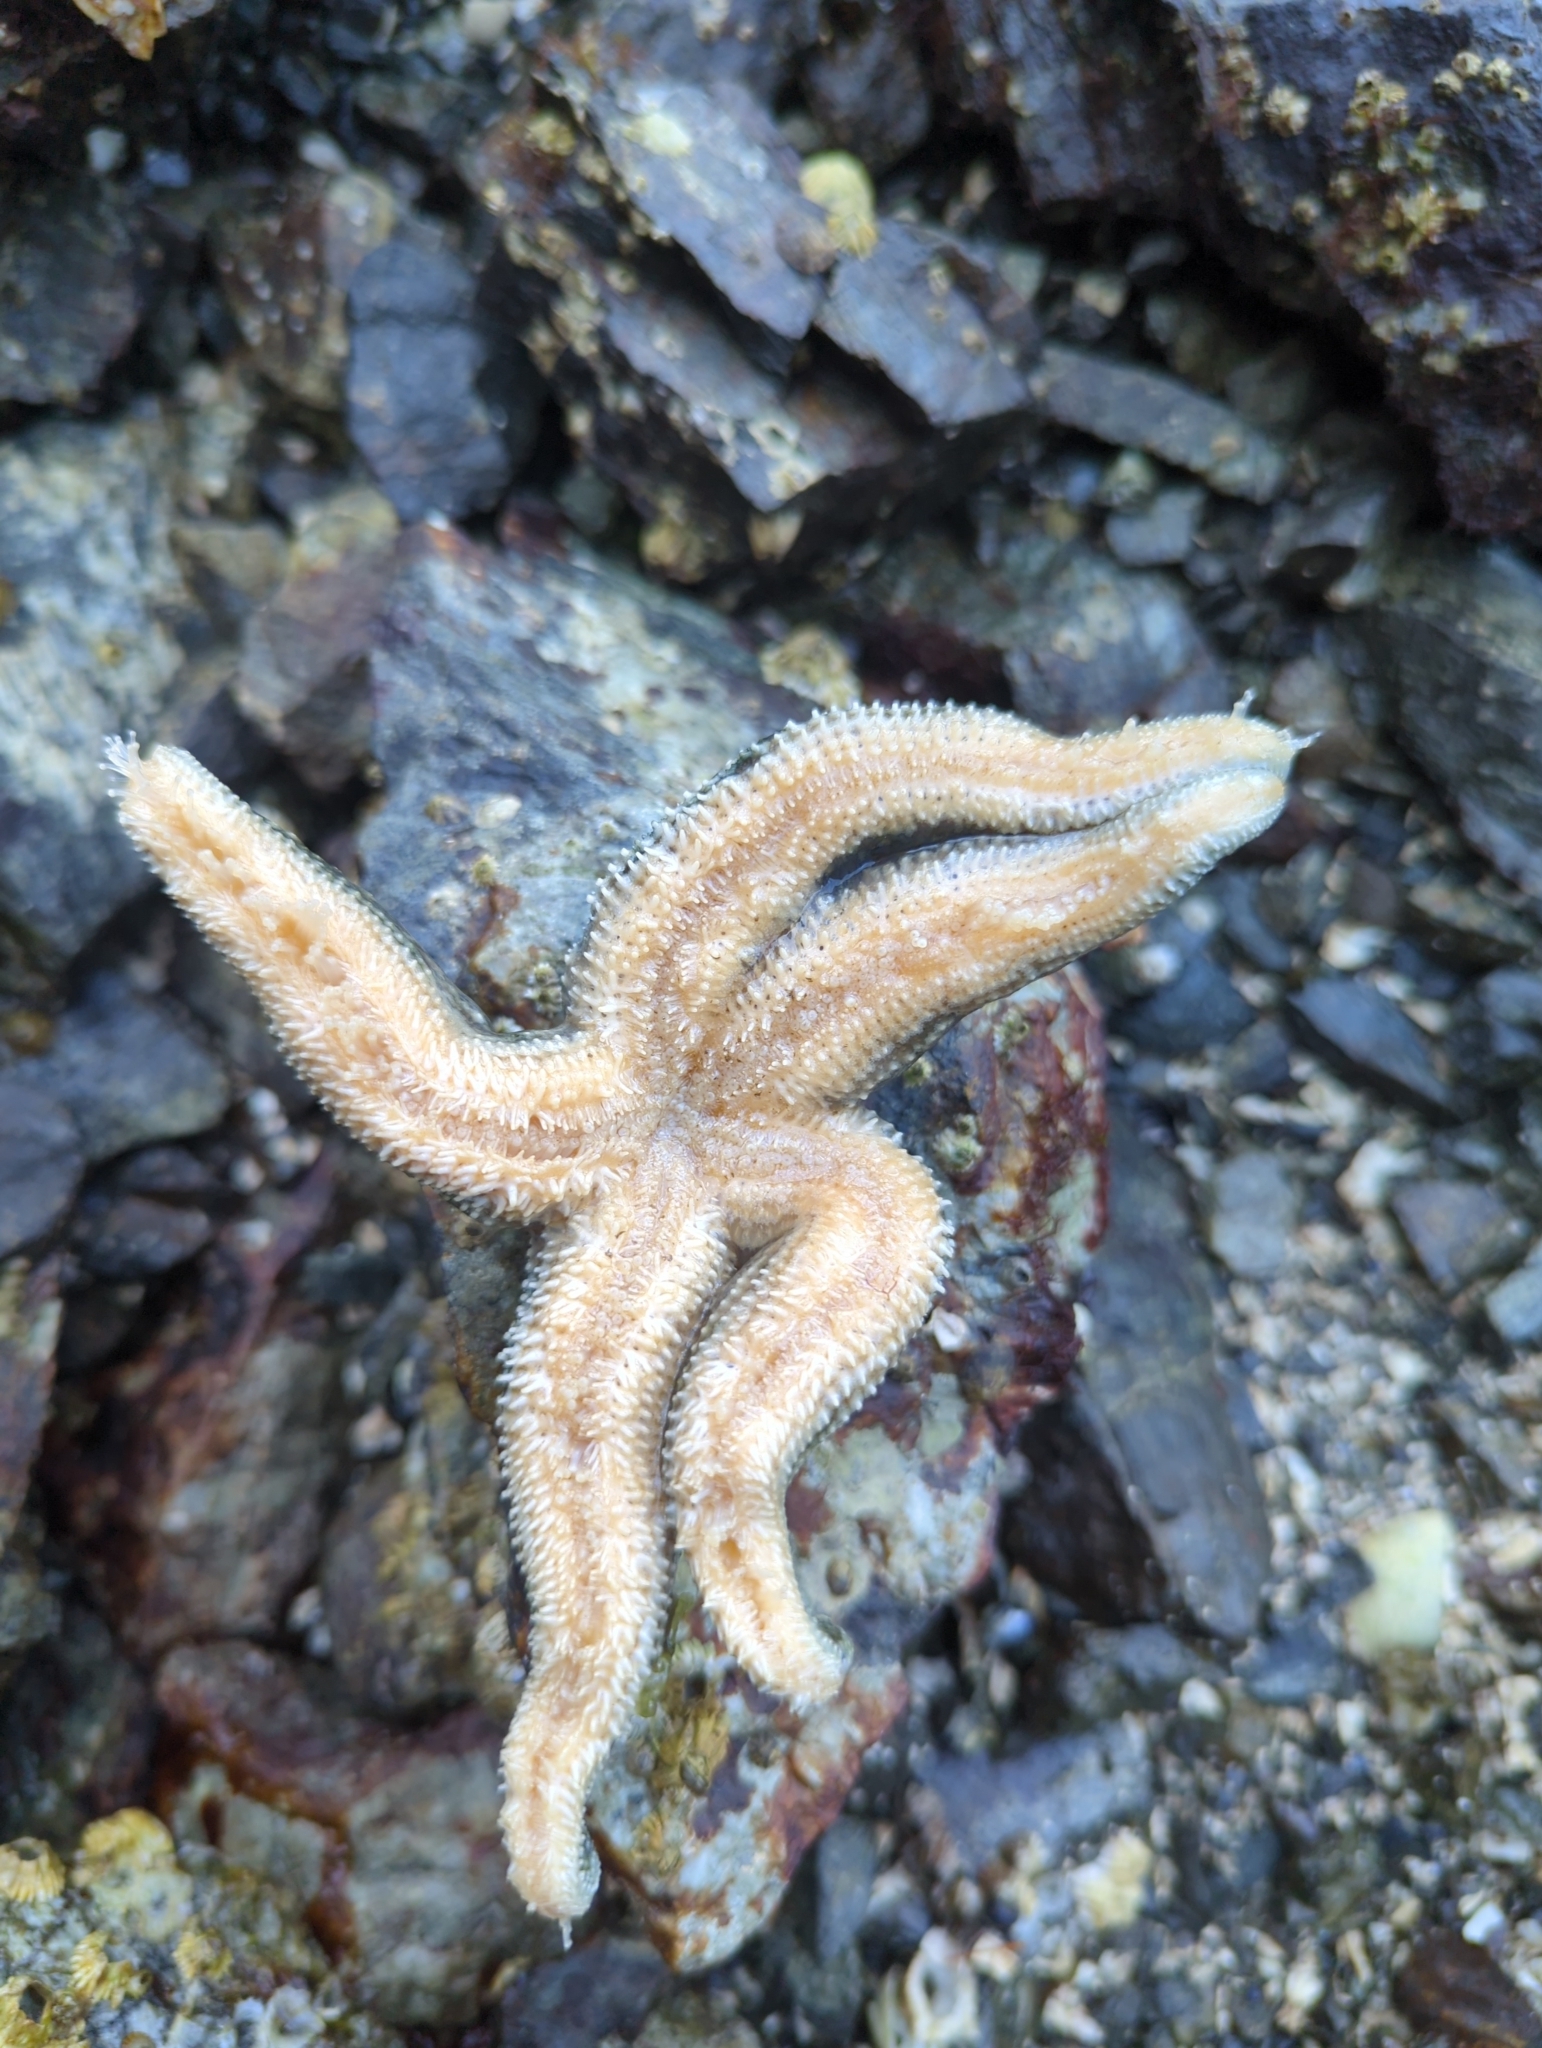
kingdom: Animalia
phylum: Echinodermata
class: Asteroidea
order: Forcipulatida
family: Asteriidae
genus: Evasterias
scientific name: Evasterias troschelii
